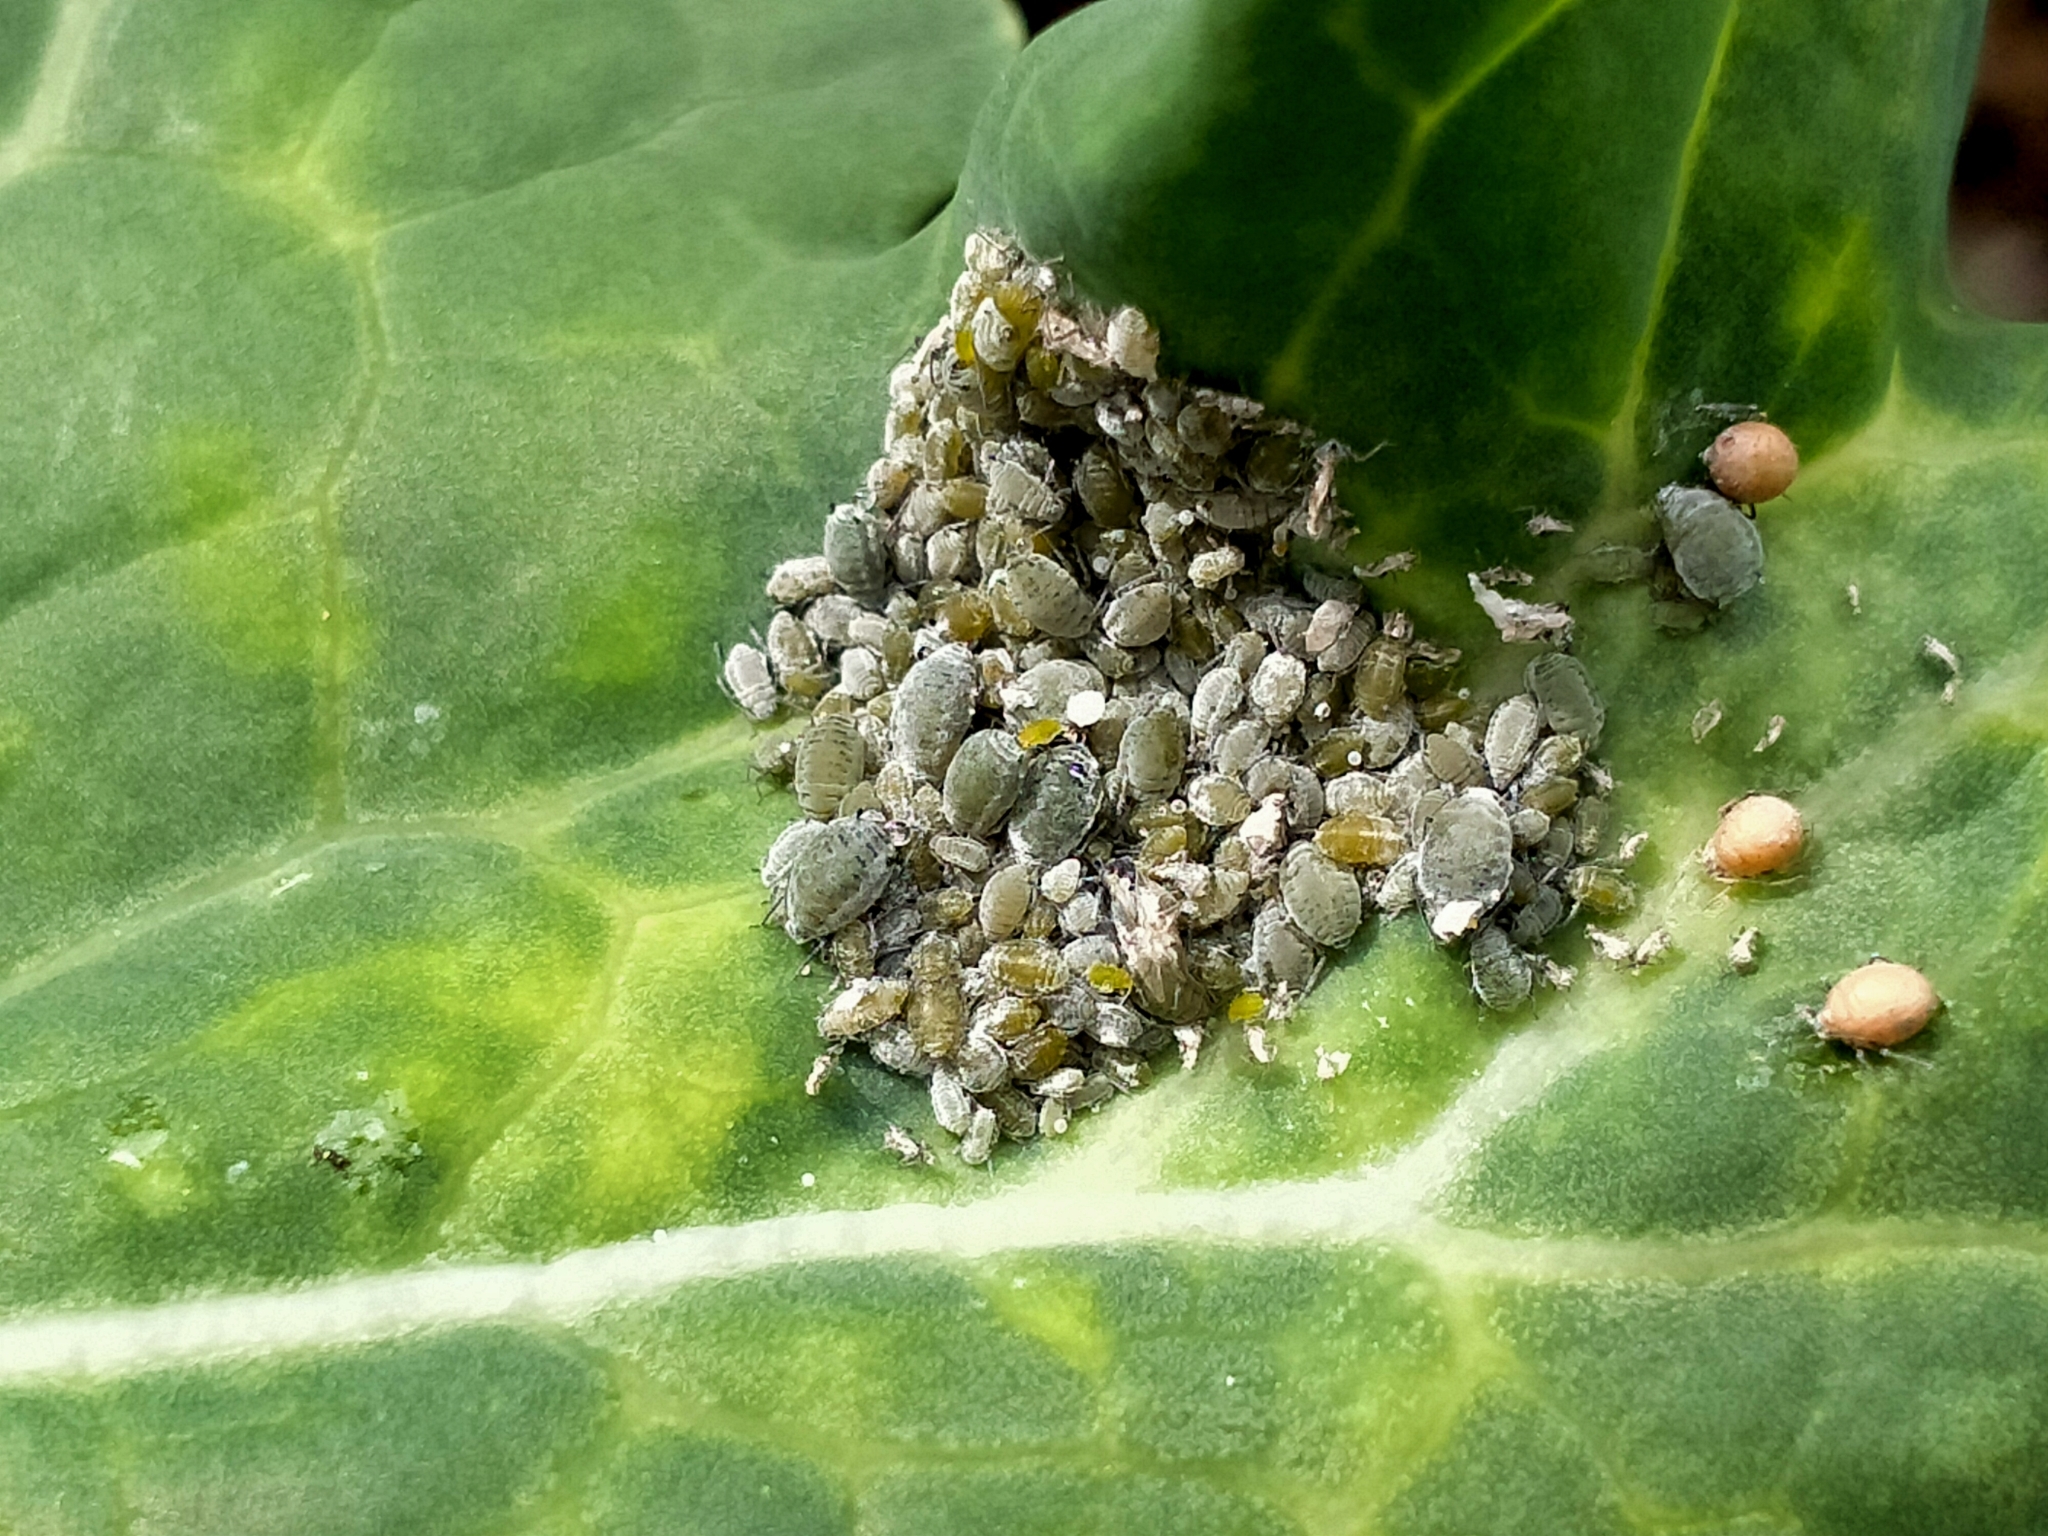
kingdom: Animalia
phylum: Arthropoda
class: Insecta
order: Hemiptera
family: Aphididae
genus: Brevicoryne
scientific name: Brevicoryne brassicae
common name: Cabbage aphid
